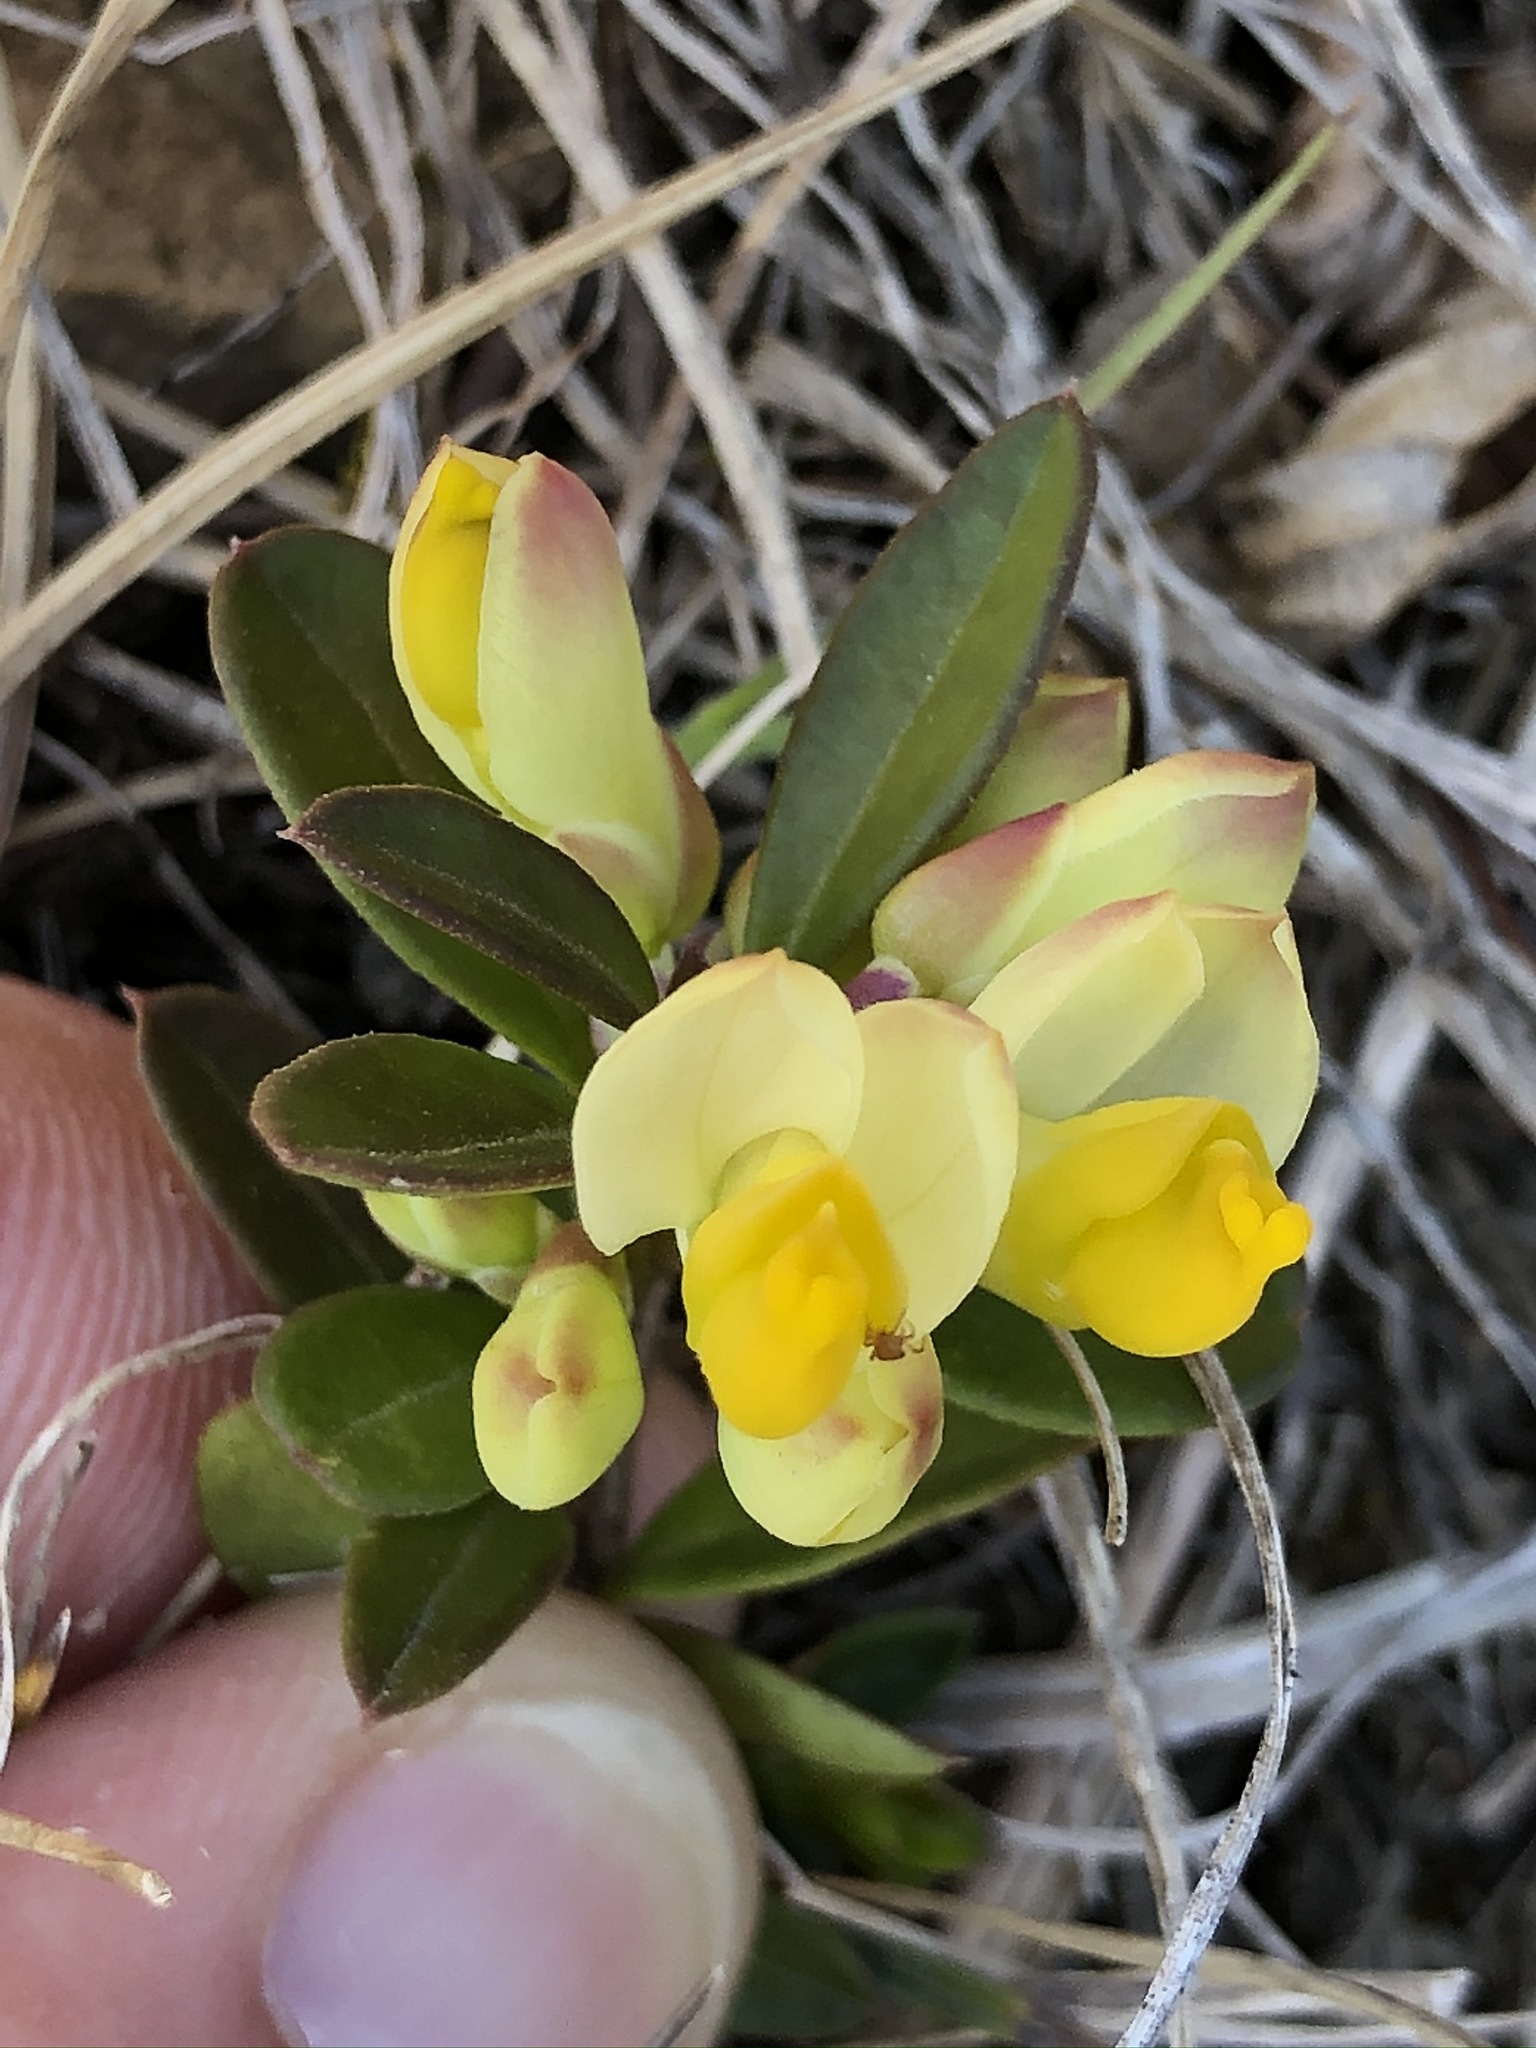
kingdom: Plantae
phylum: Tracheophyta
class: Magnoliopsida
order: Fabales
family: Polygalaceae
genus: Polygaloides
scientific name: Polygaloides chamaebuxus
